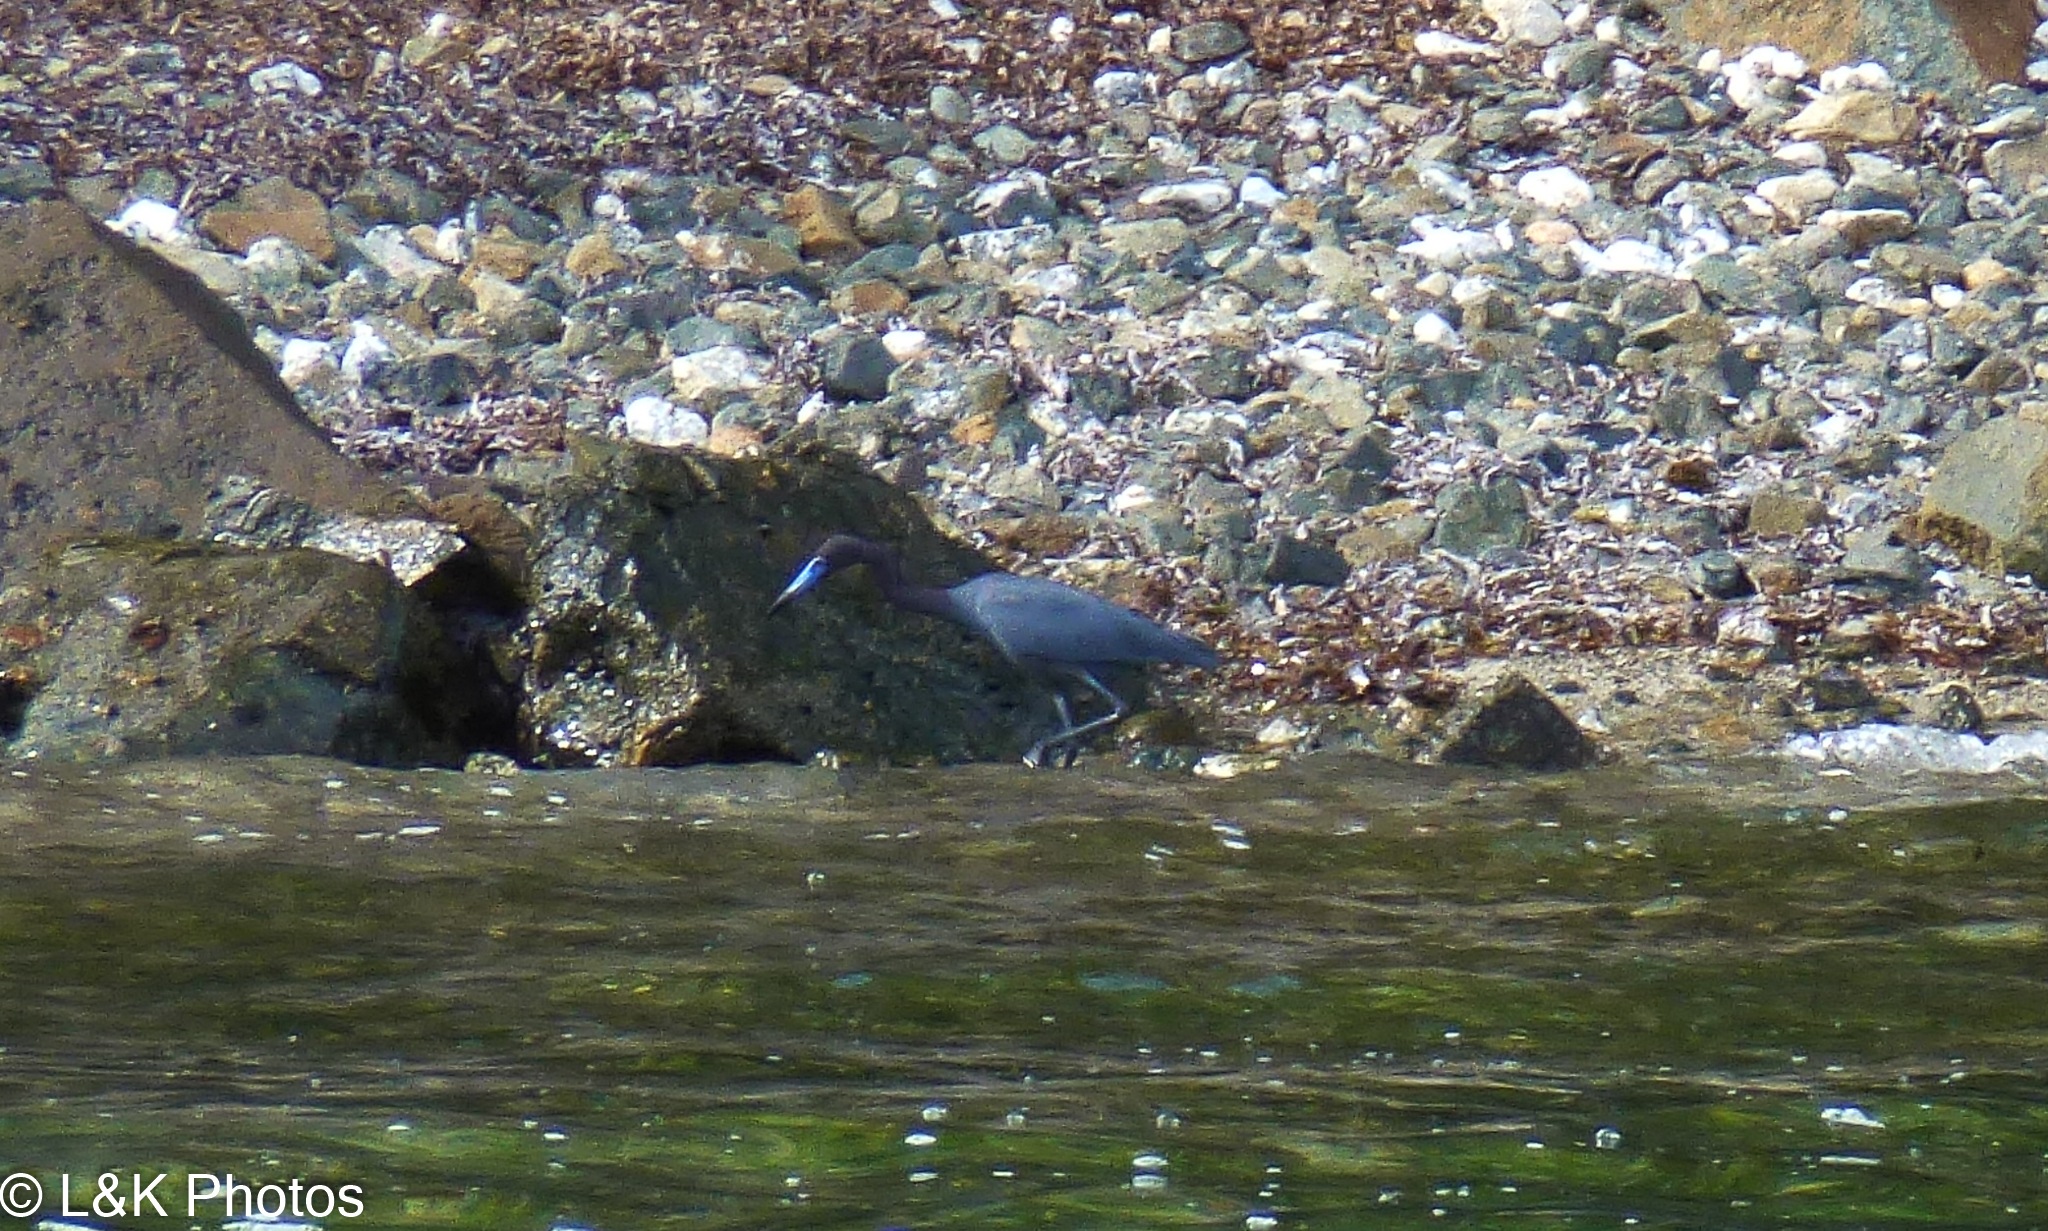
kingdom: Animalia
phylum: Chordata
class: Aves
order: Pelecaniformes
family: Ardeidae
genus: Egretta
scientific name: Egretta caerulea
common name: Little blue heron
